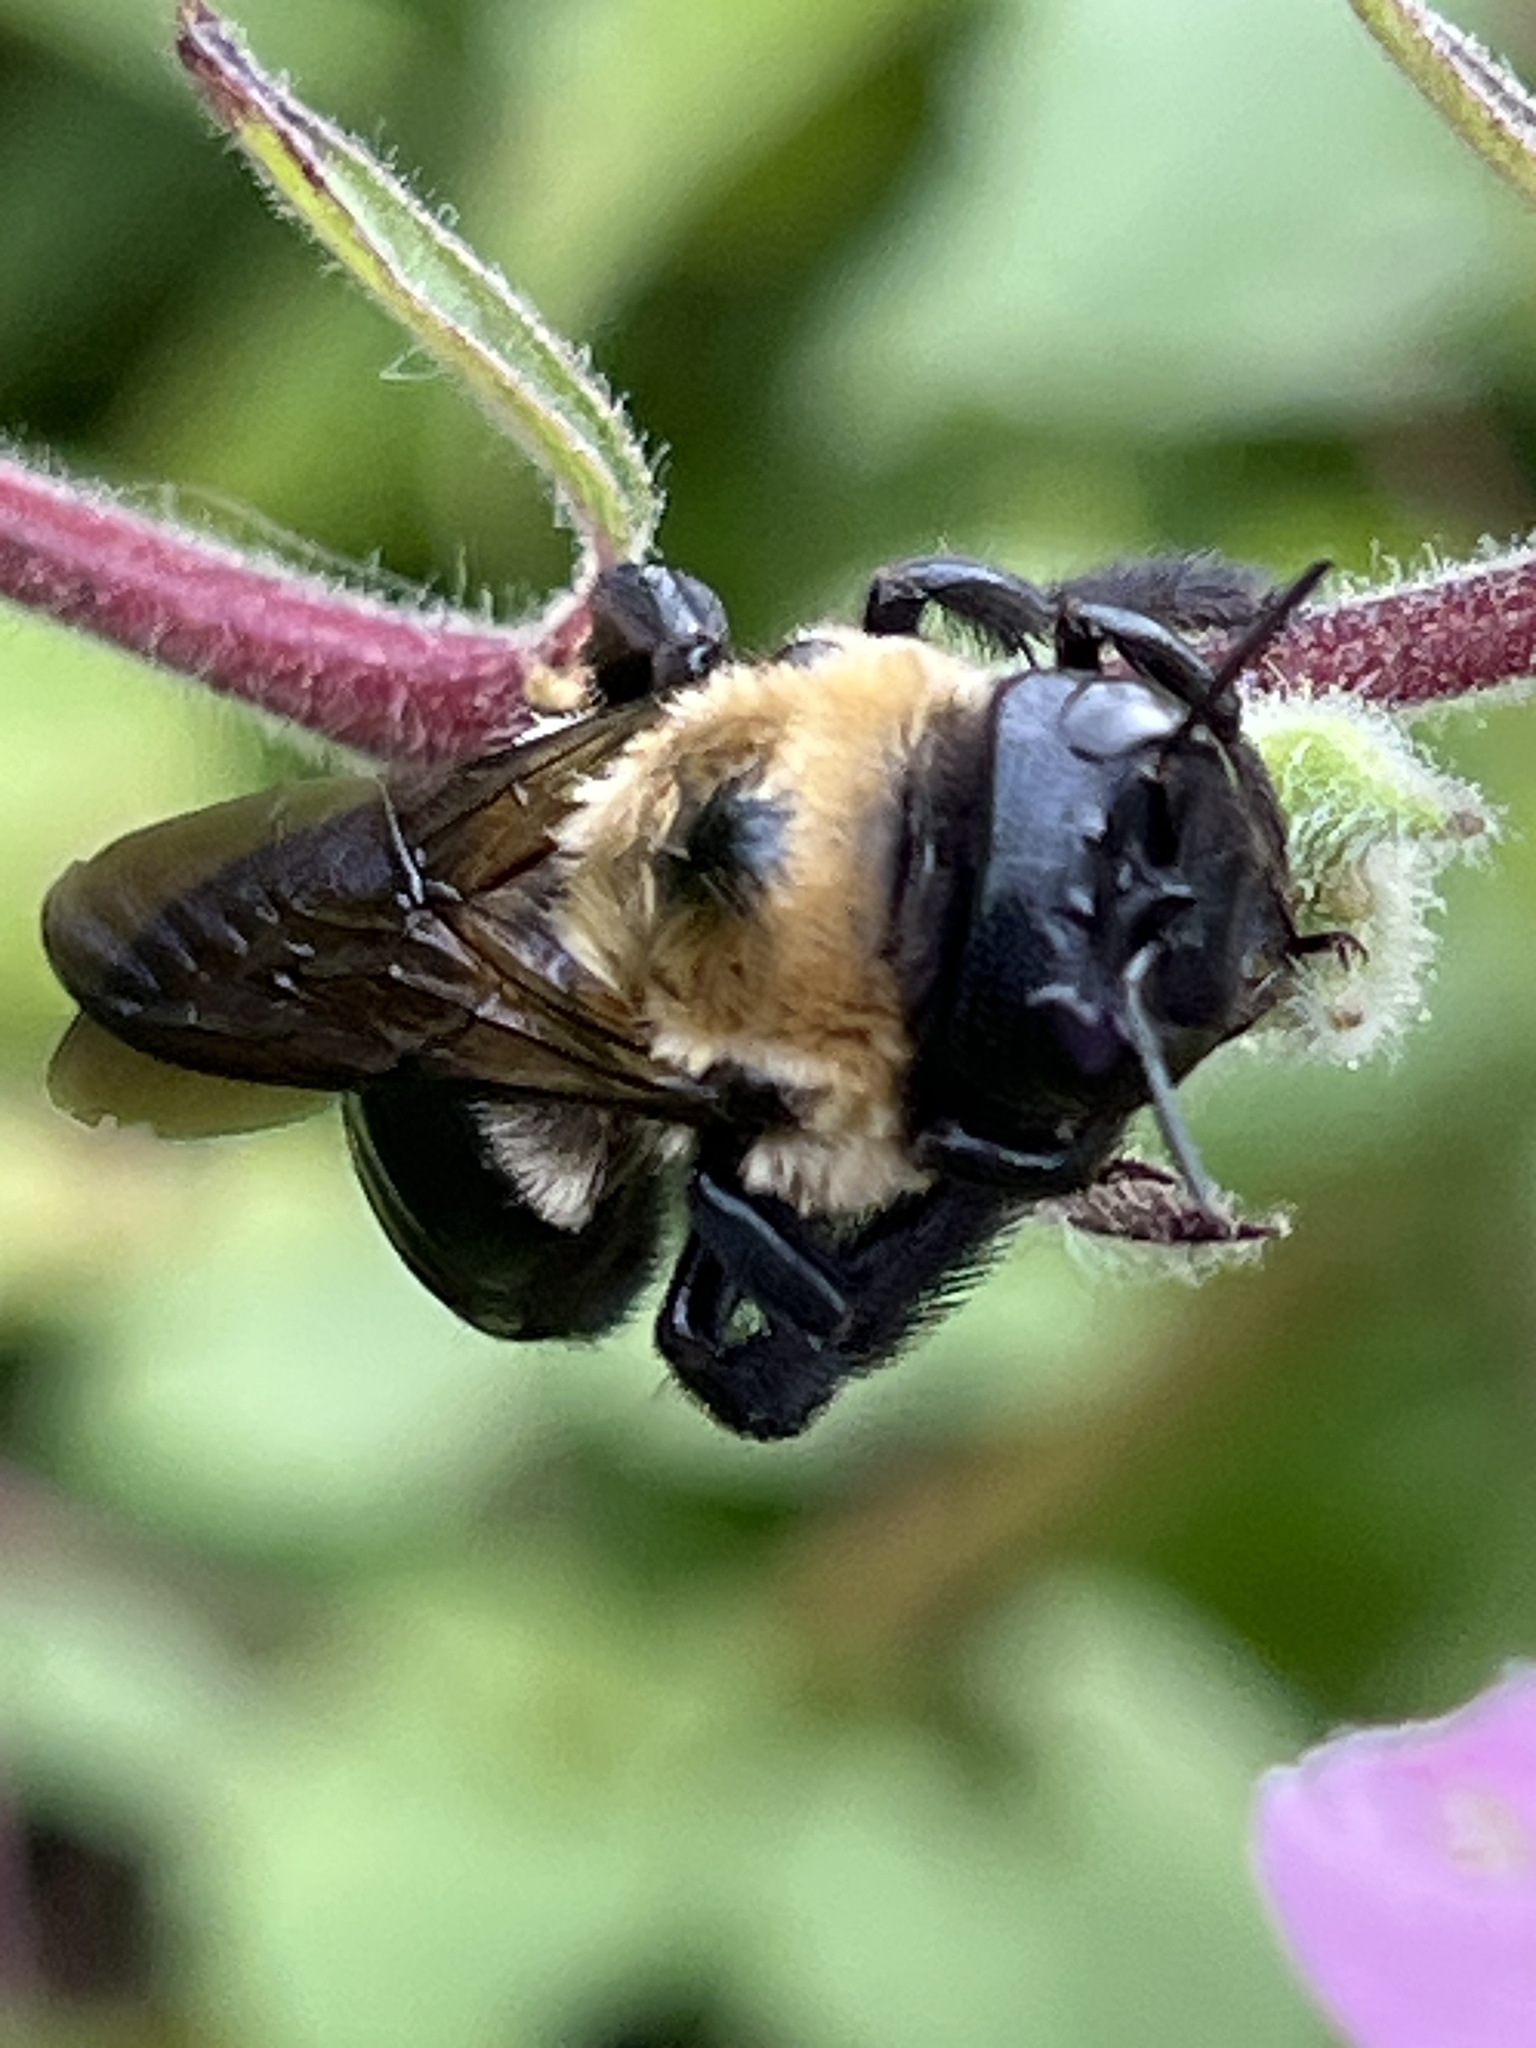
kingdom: Animalia
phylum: Arthropoda
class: Insecta
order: Hymenoptera
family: Apidae
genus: Xylocopa
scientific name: Xylocopa virginica
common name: Carpenter bee
